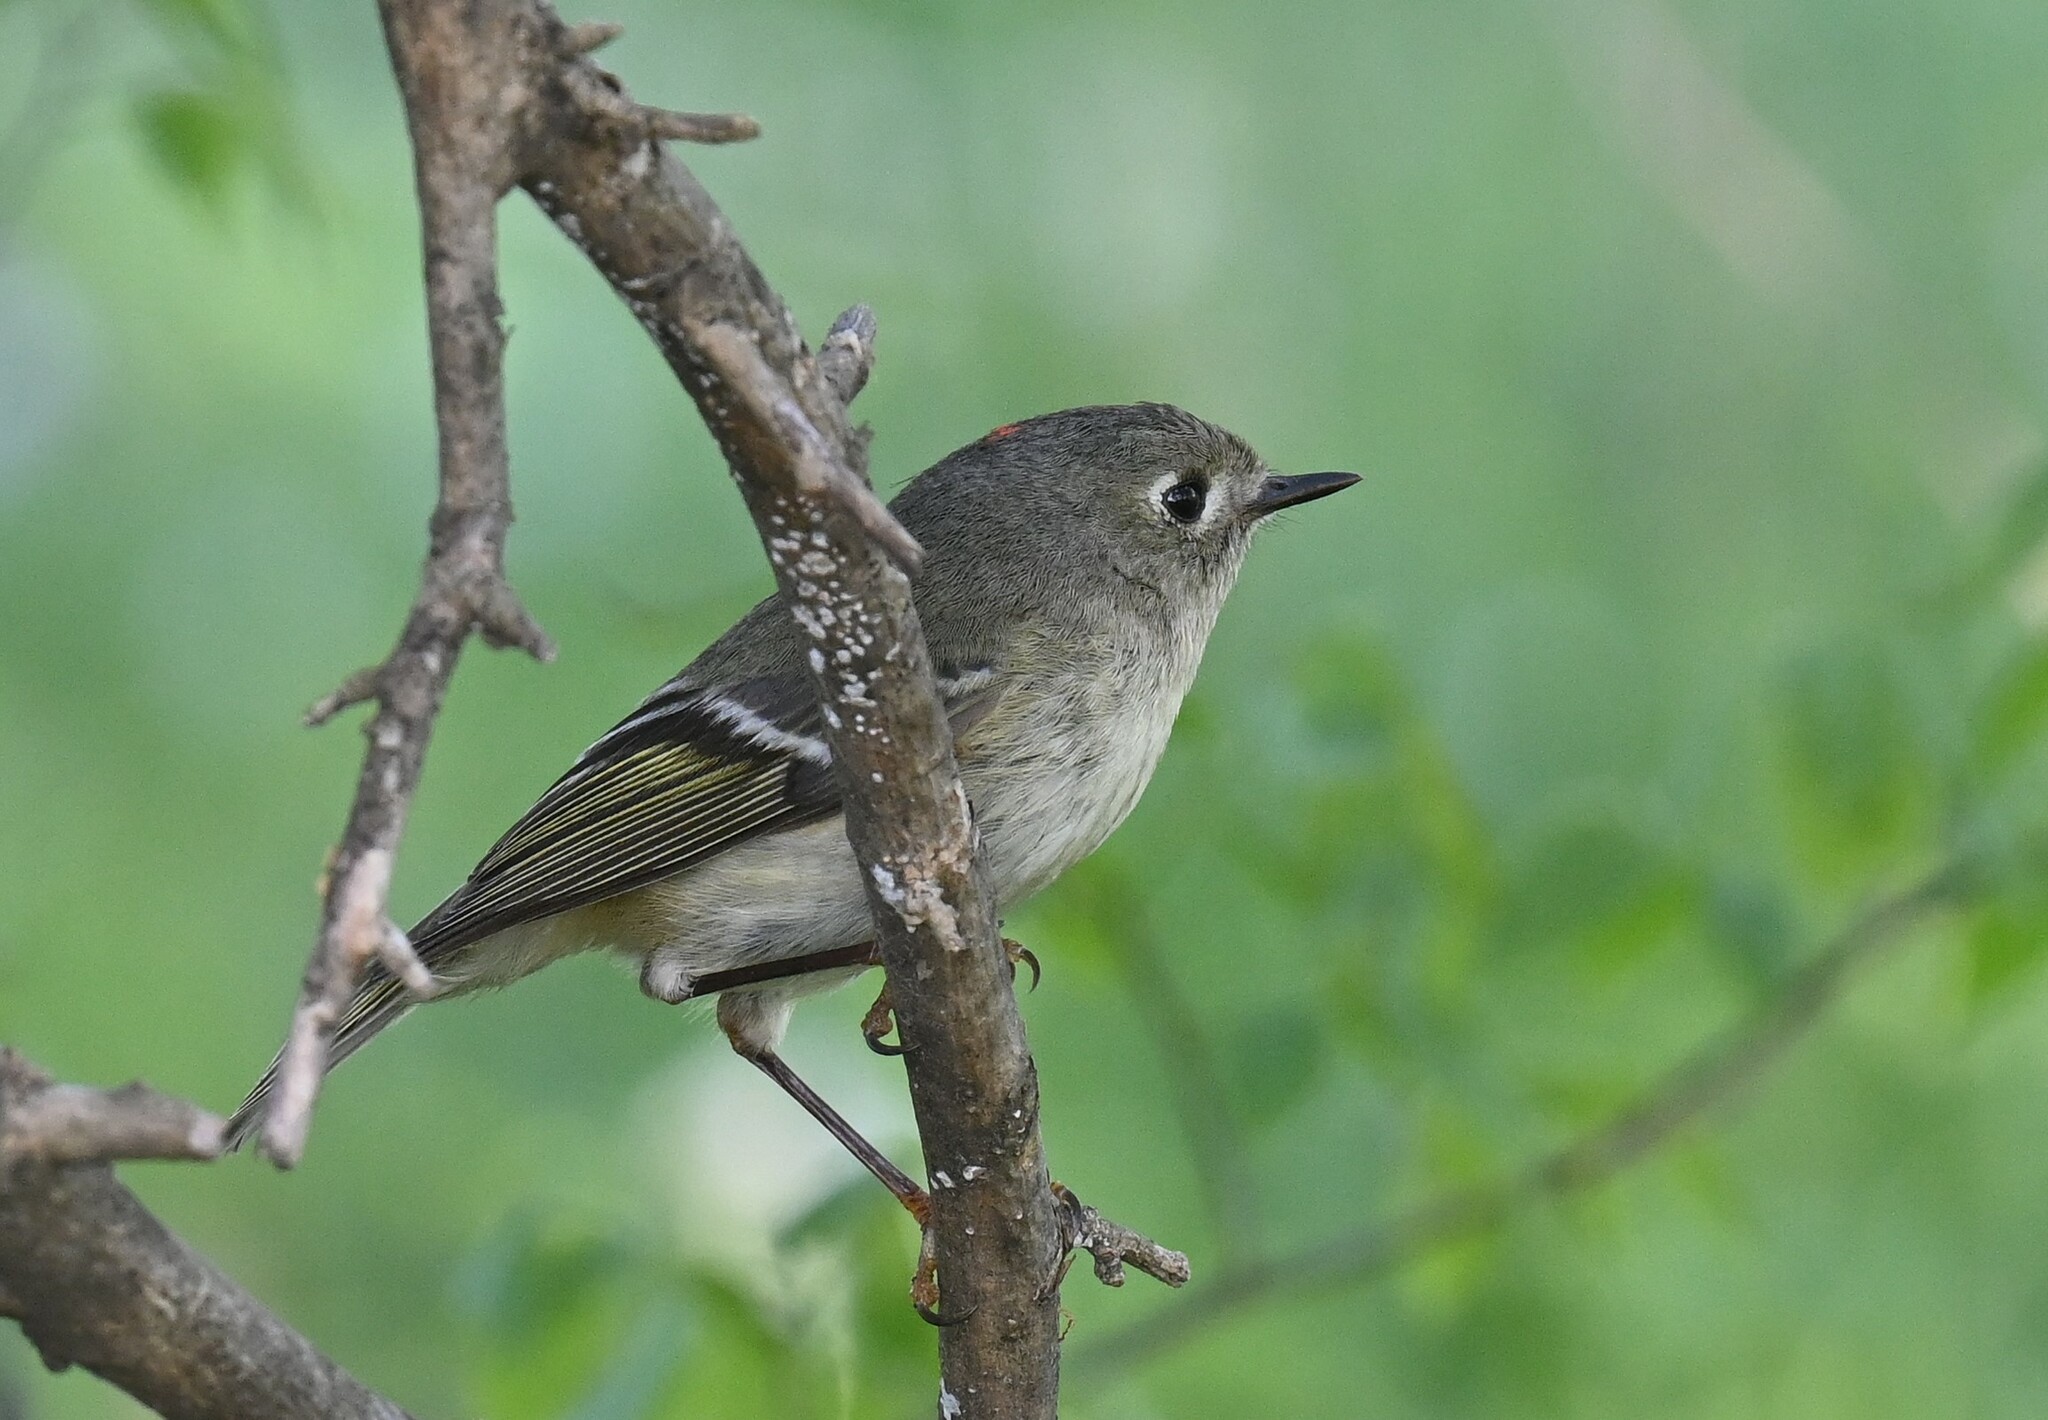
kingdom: Animalia
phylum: Chordata
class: Aves
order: Passeriformes
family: Regulidae
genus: Regulus
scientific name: Regulus calendula
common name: Ruby-crowned kinglet
